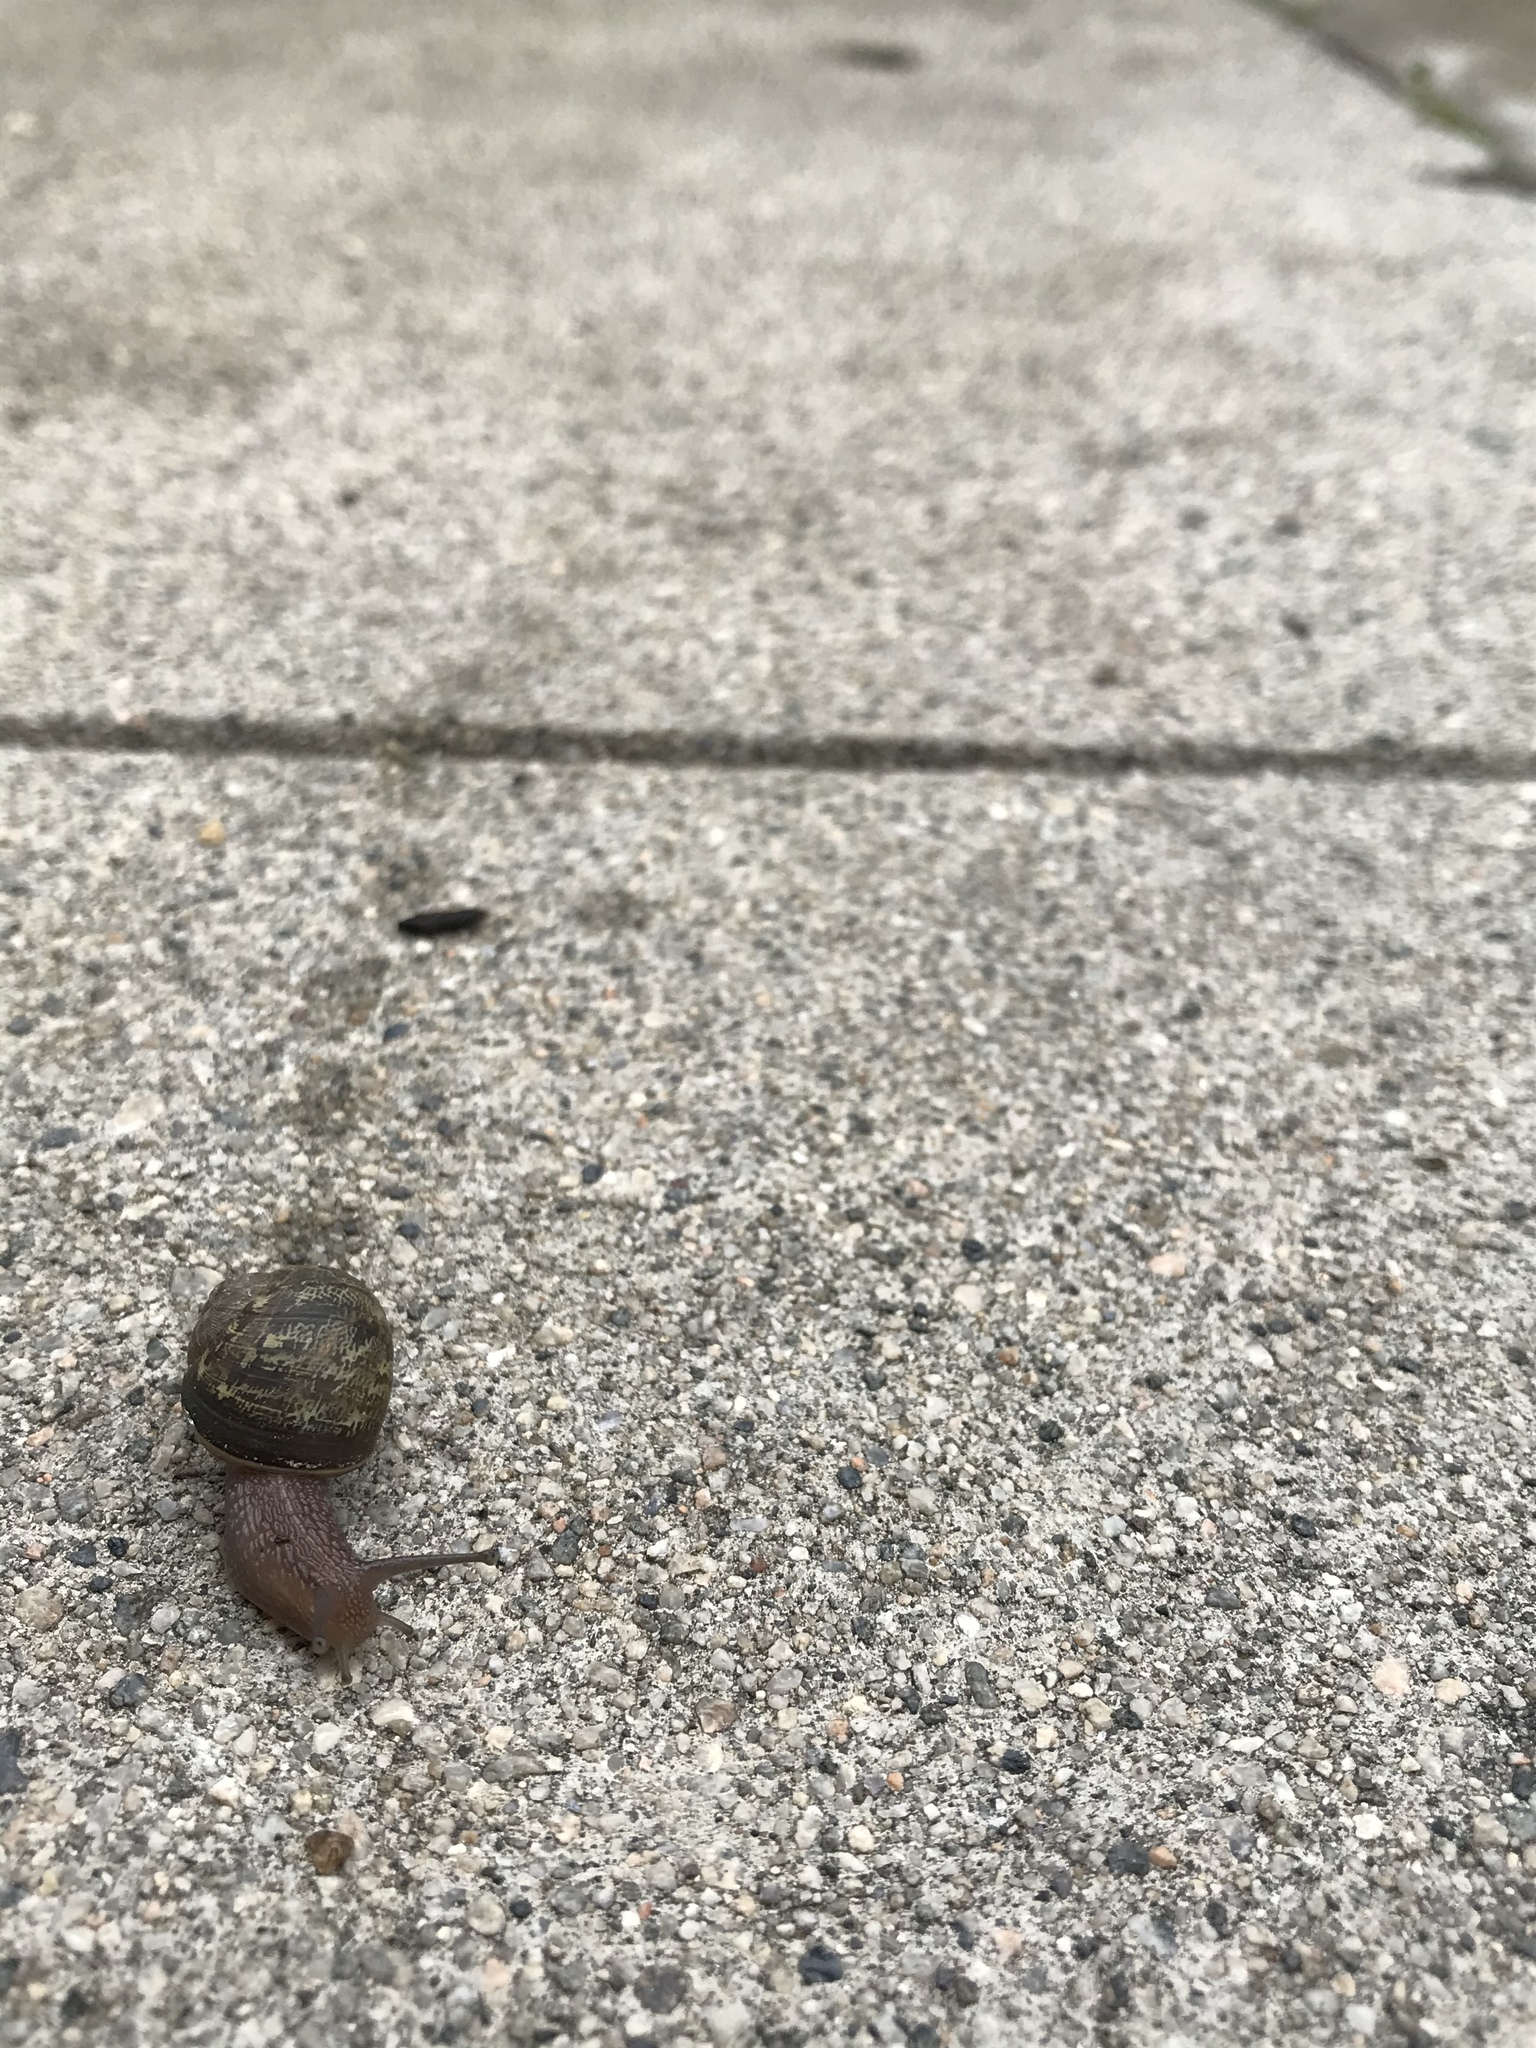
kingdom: Animalia
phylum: Mollusca
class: Gastropoda
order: Stylommatophora
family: Helicidae
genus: Cornu
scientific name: Cornu aspersum
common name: Brown garden snail
